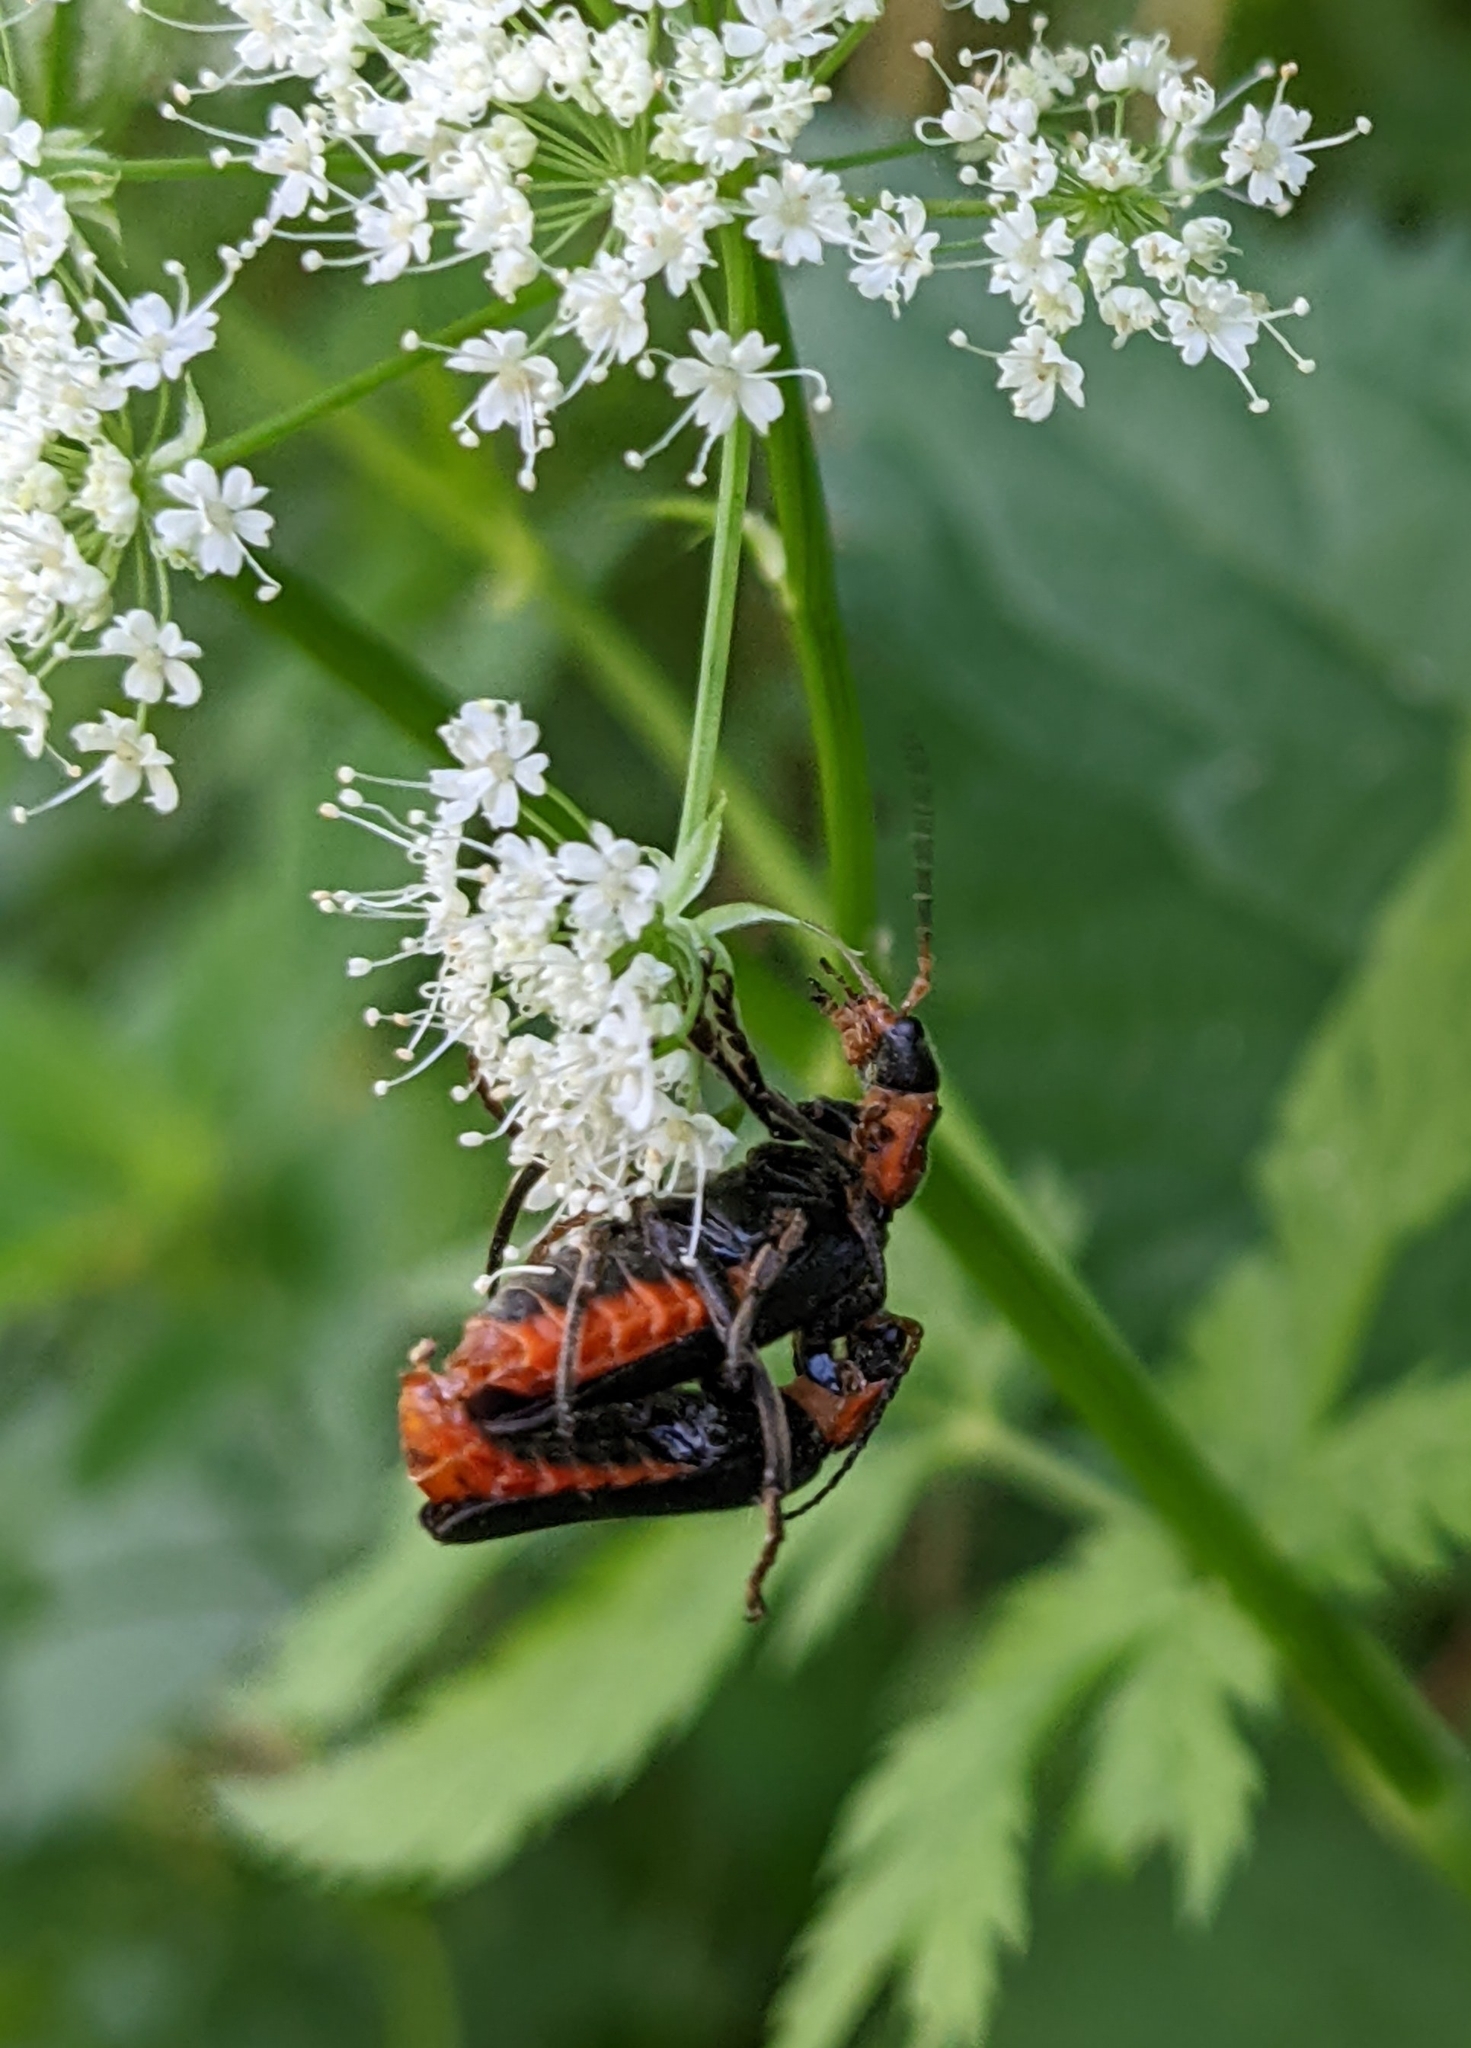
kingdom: Animalia
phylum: Arthropoda
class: Insecta
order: Coleoptera
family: Cantharidae
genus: Cantharis
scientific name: Cantharis fusca
